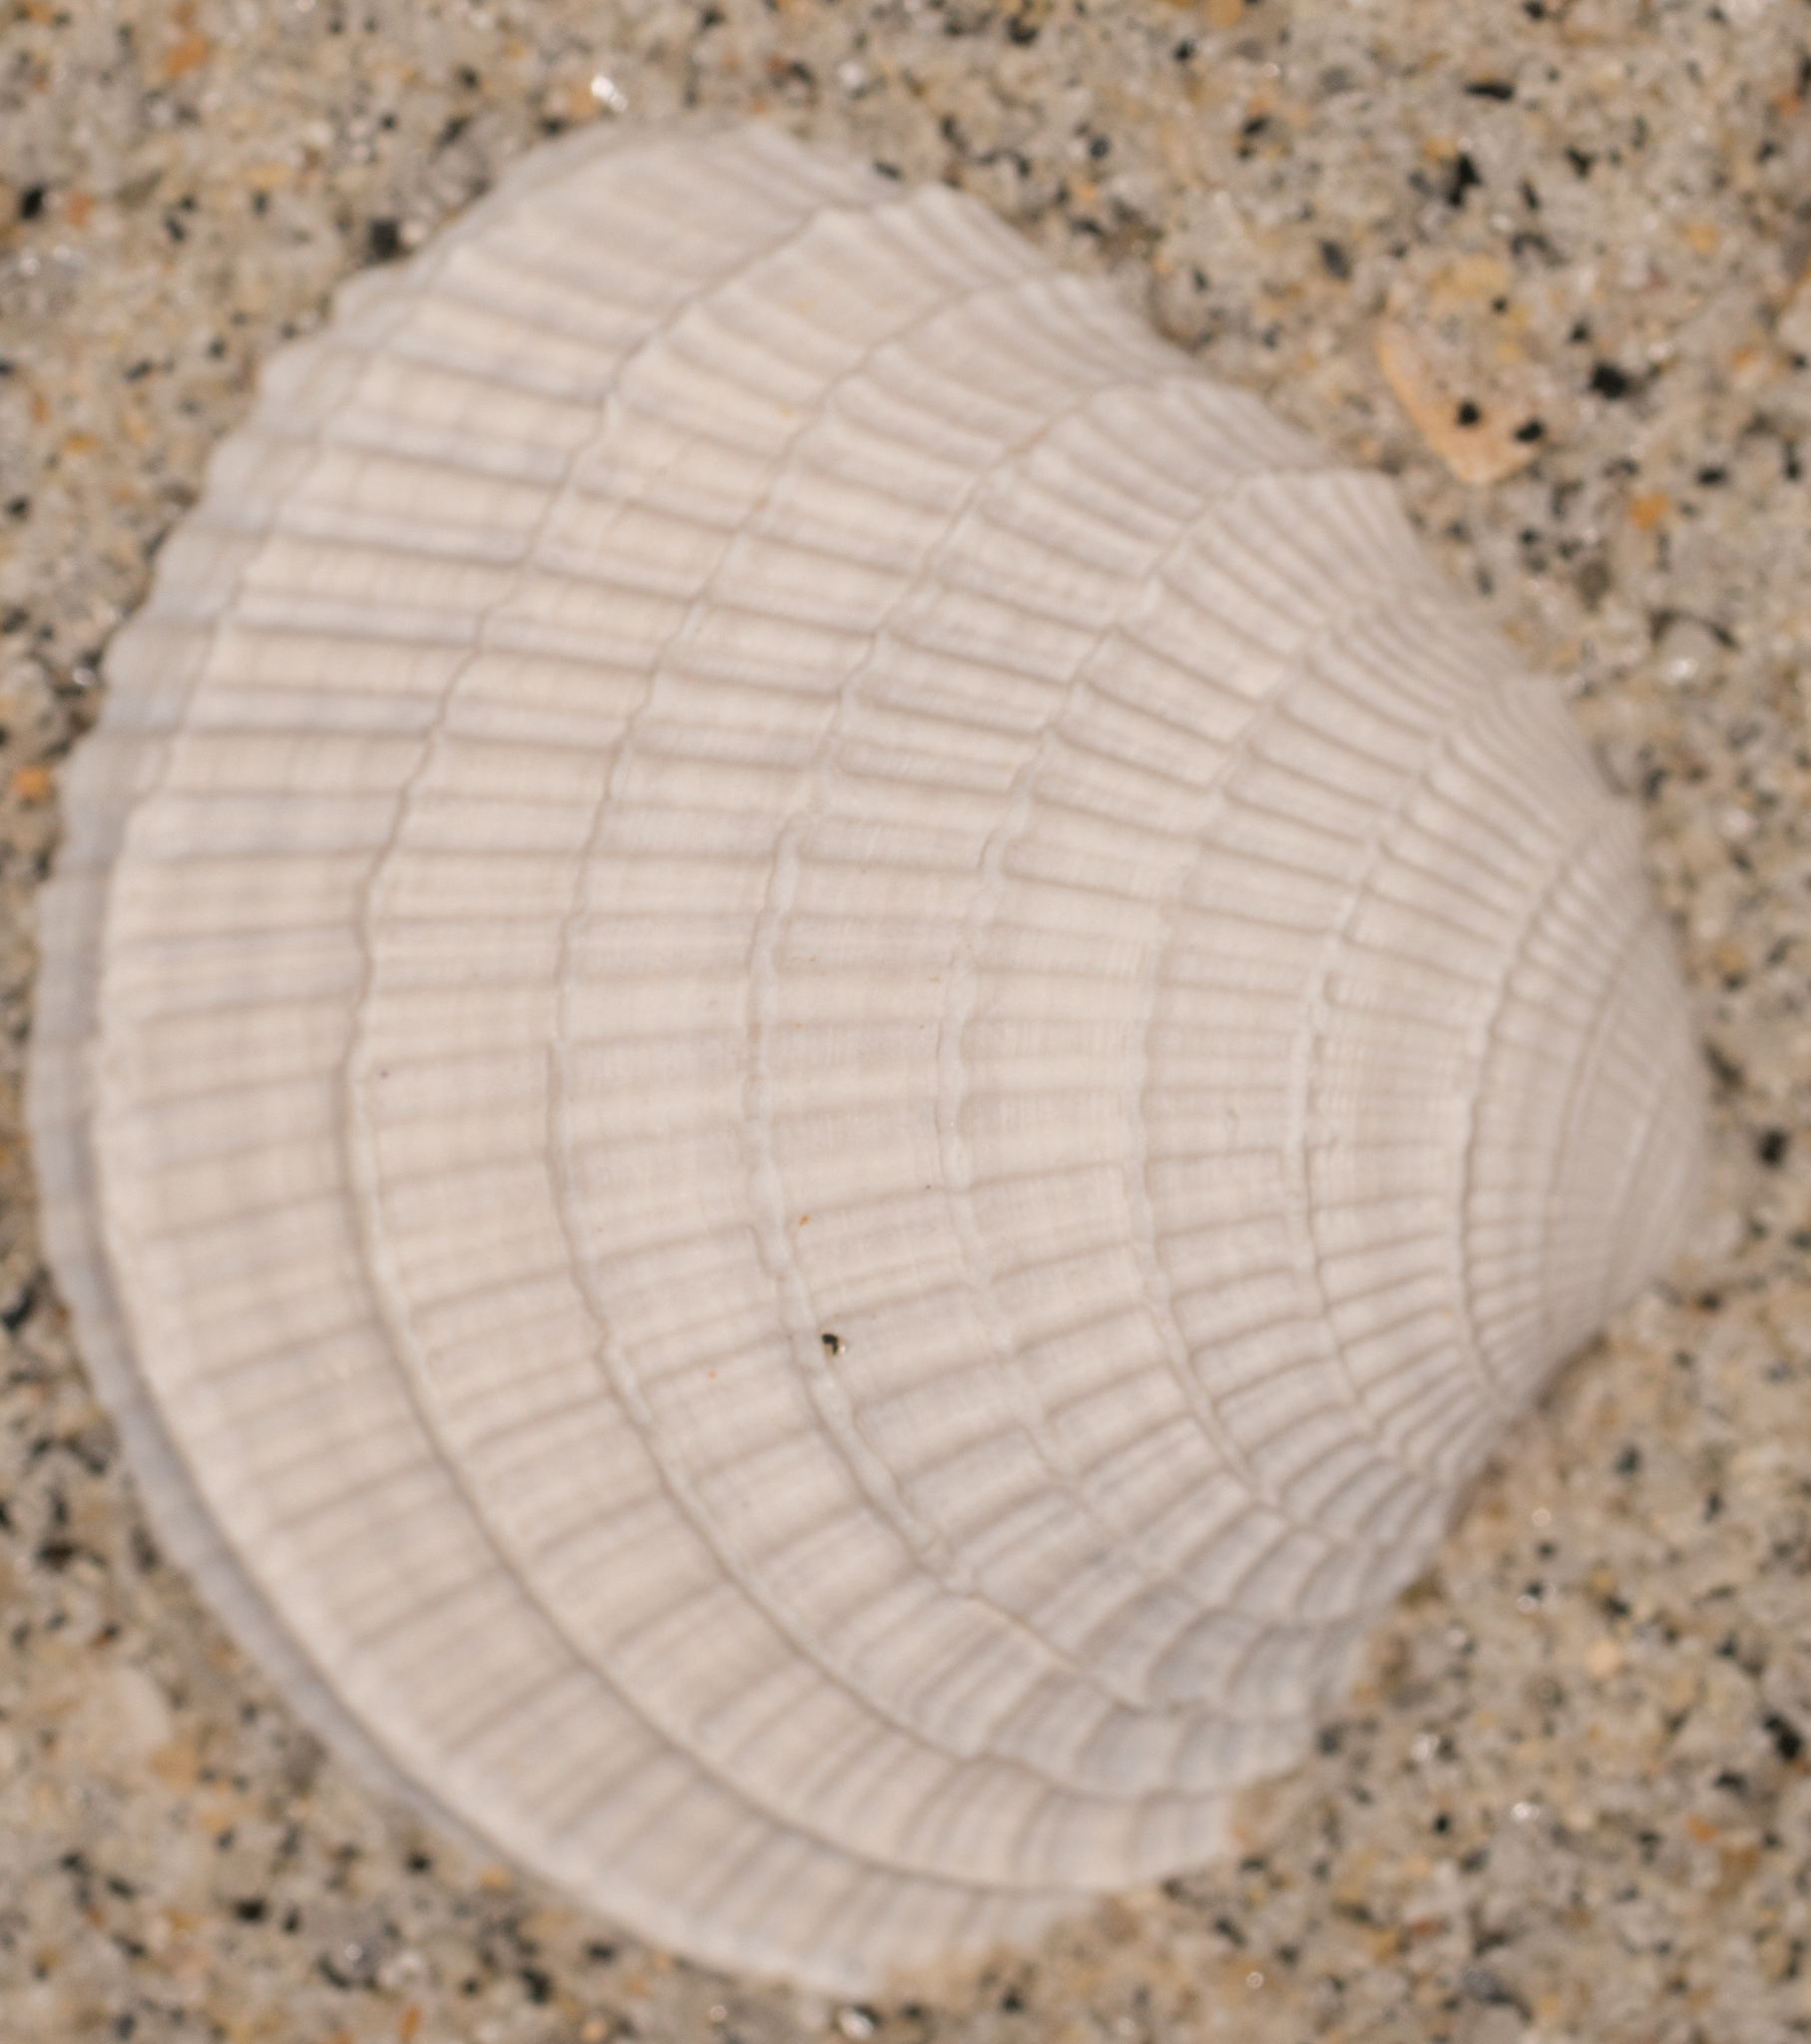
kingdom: Animalia
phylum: Mollusca
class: Bivalvia
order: Venerida
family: Veneridae
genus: Chione
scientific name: Chione californiensis
